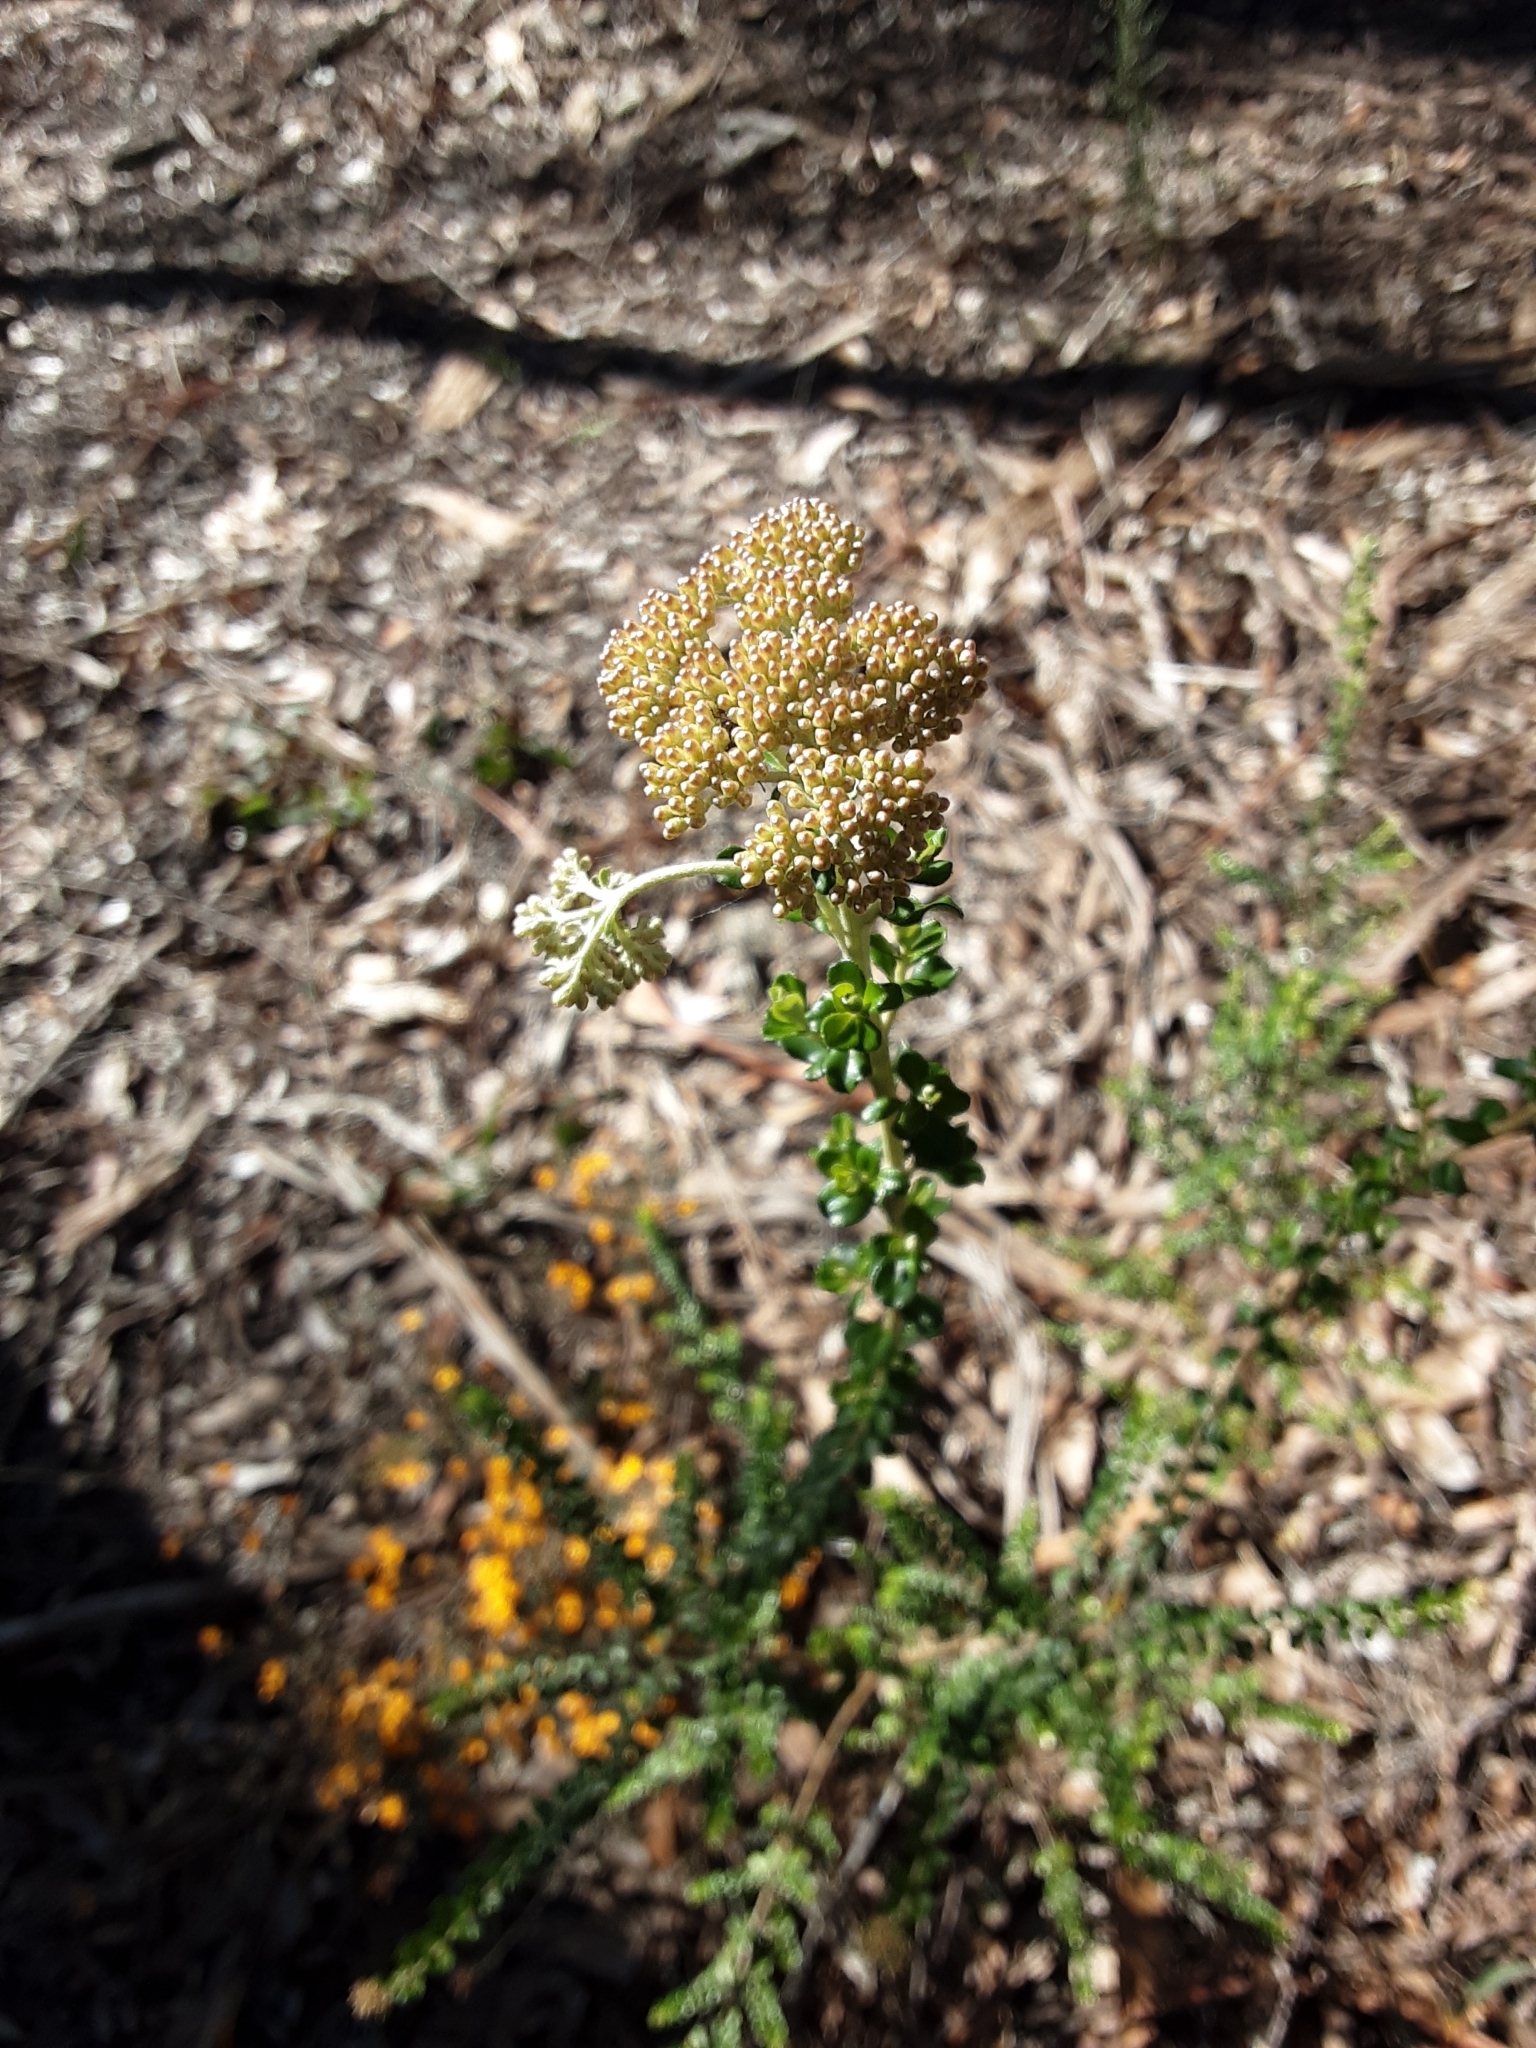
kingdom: Plantae
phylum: Tracheophyta
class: Magnoliopsida
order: Asterales
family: Asteraceae
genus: Ozothamnus
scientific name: Ozothamnus obcordatus
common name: Grey everlasting
